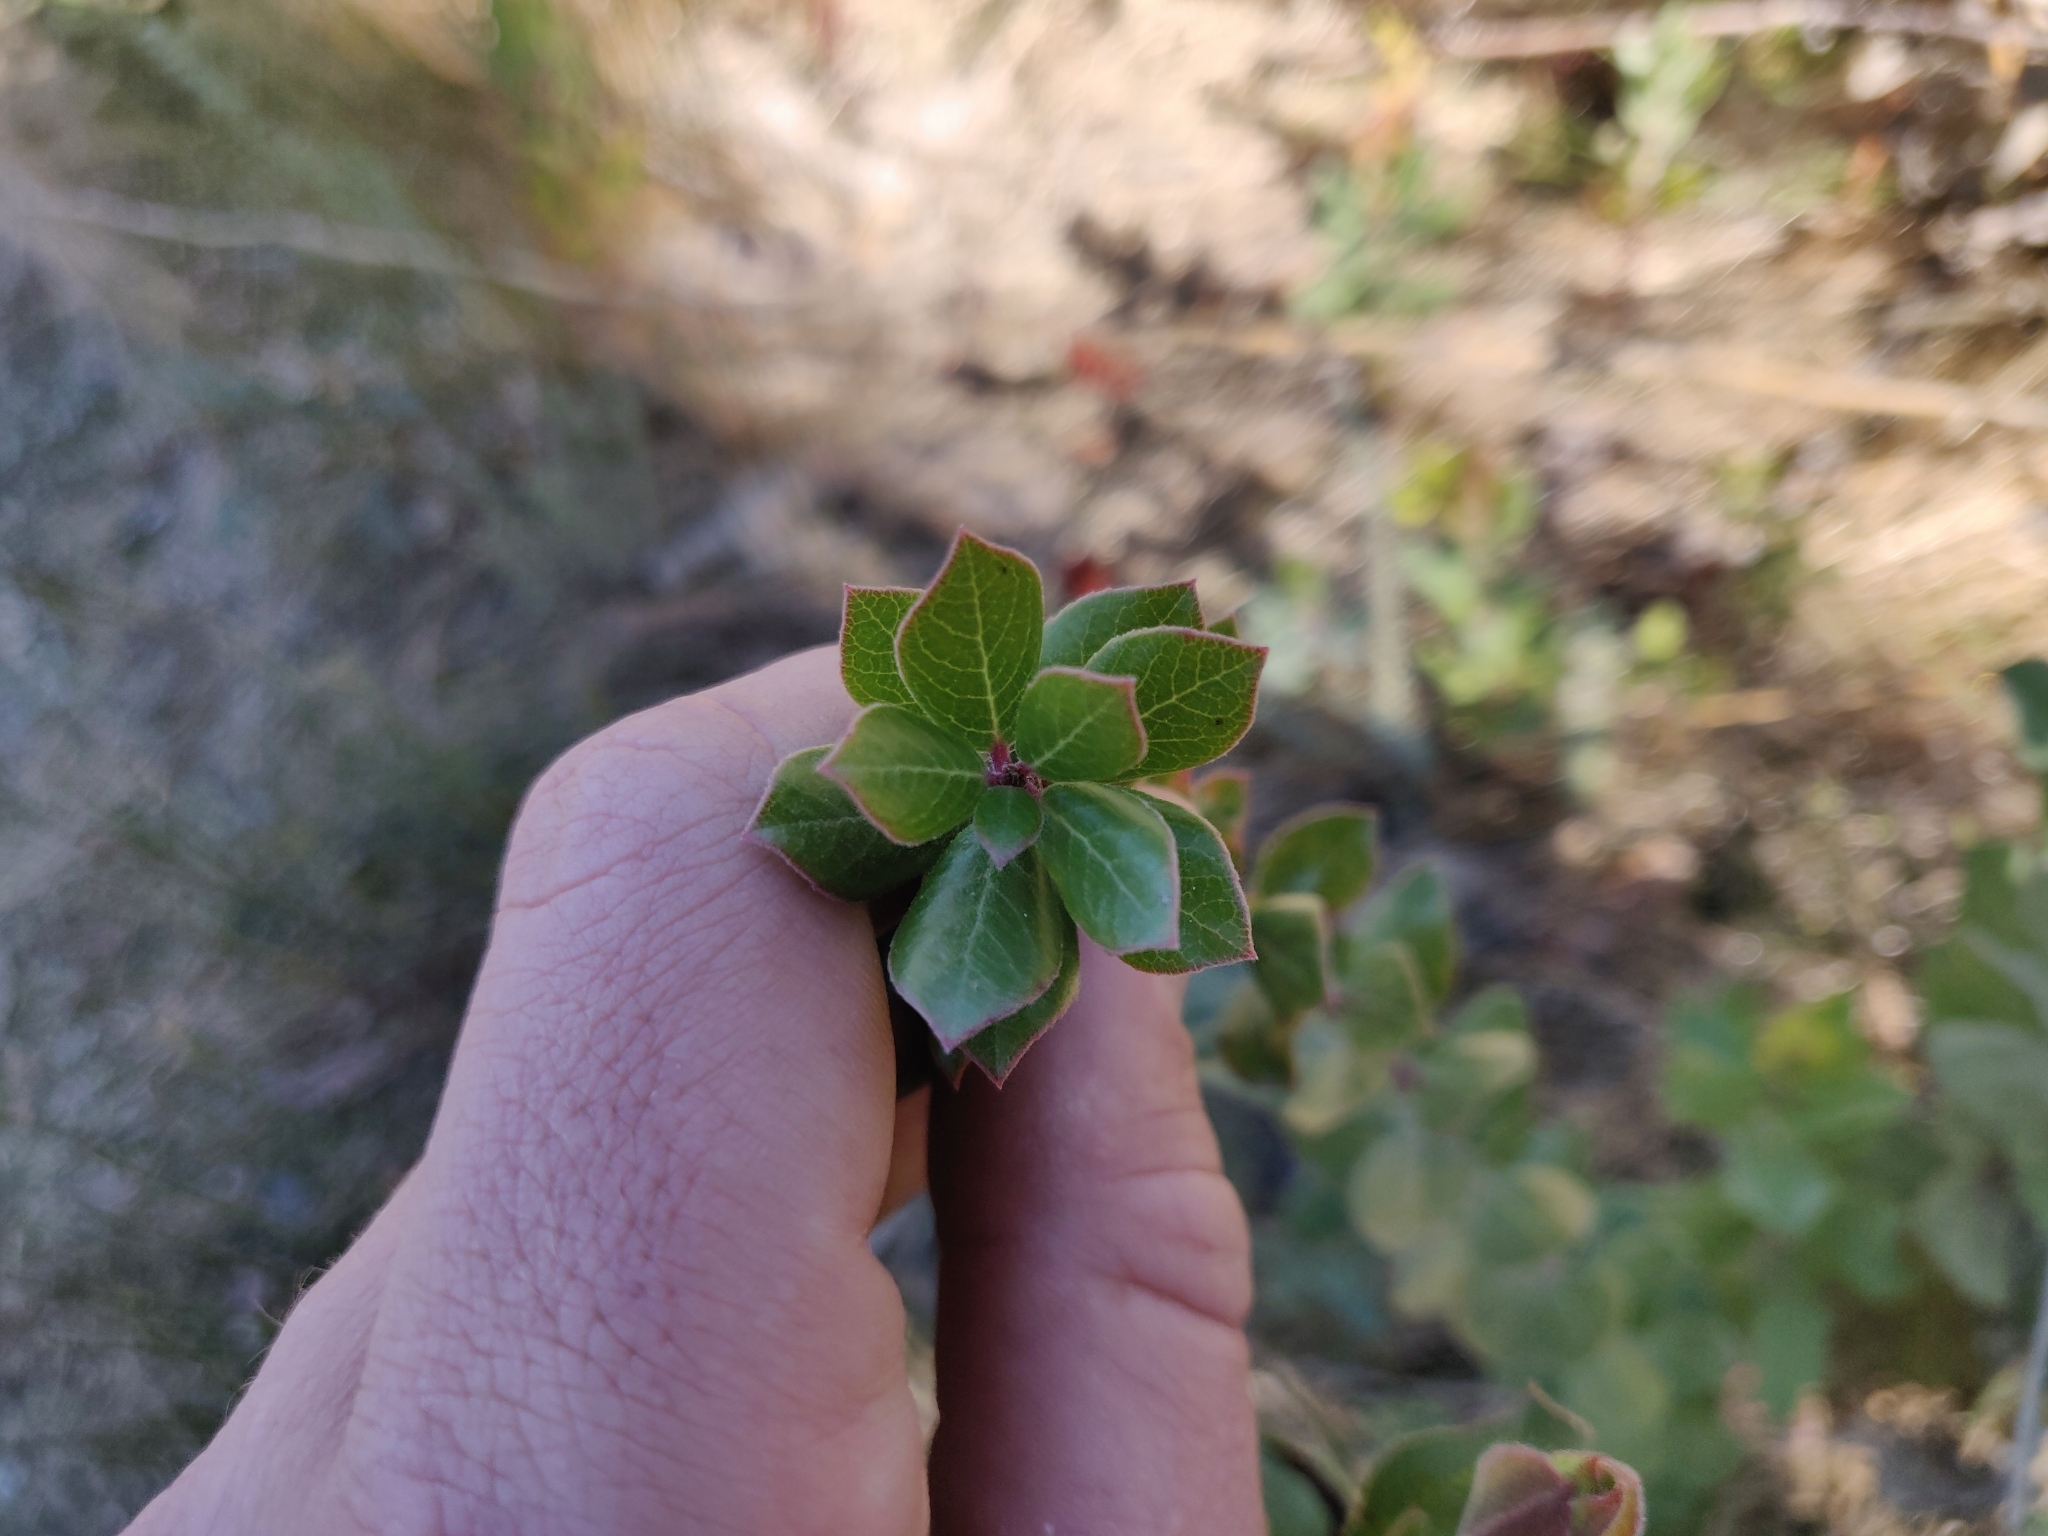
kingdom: Plantae
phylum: Tracheophyta
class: Magnoliopsida
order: Ericales
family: Ericaceae
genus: Arctostaphylos
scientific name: Arctostaphylos nummularia
